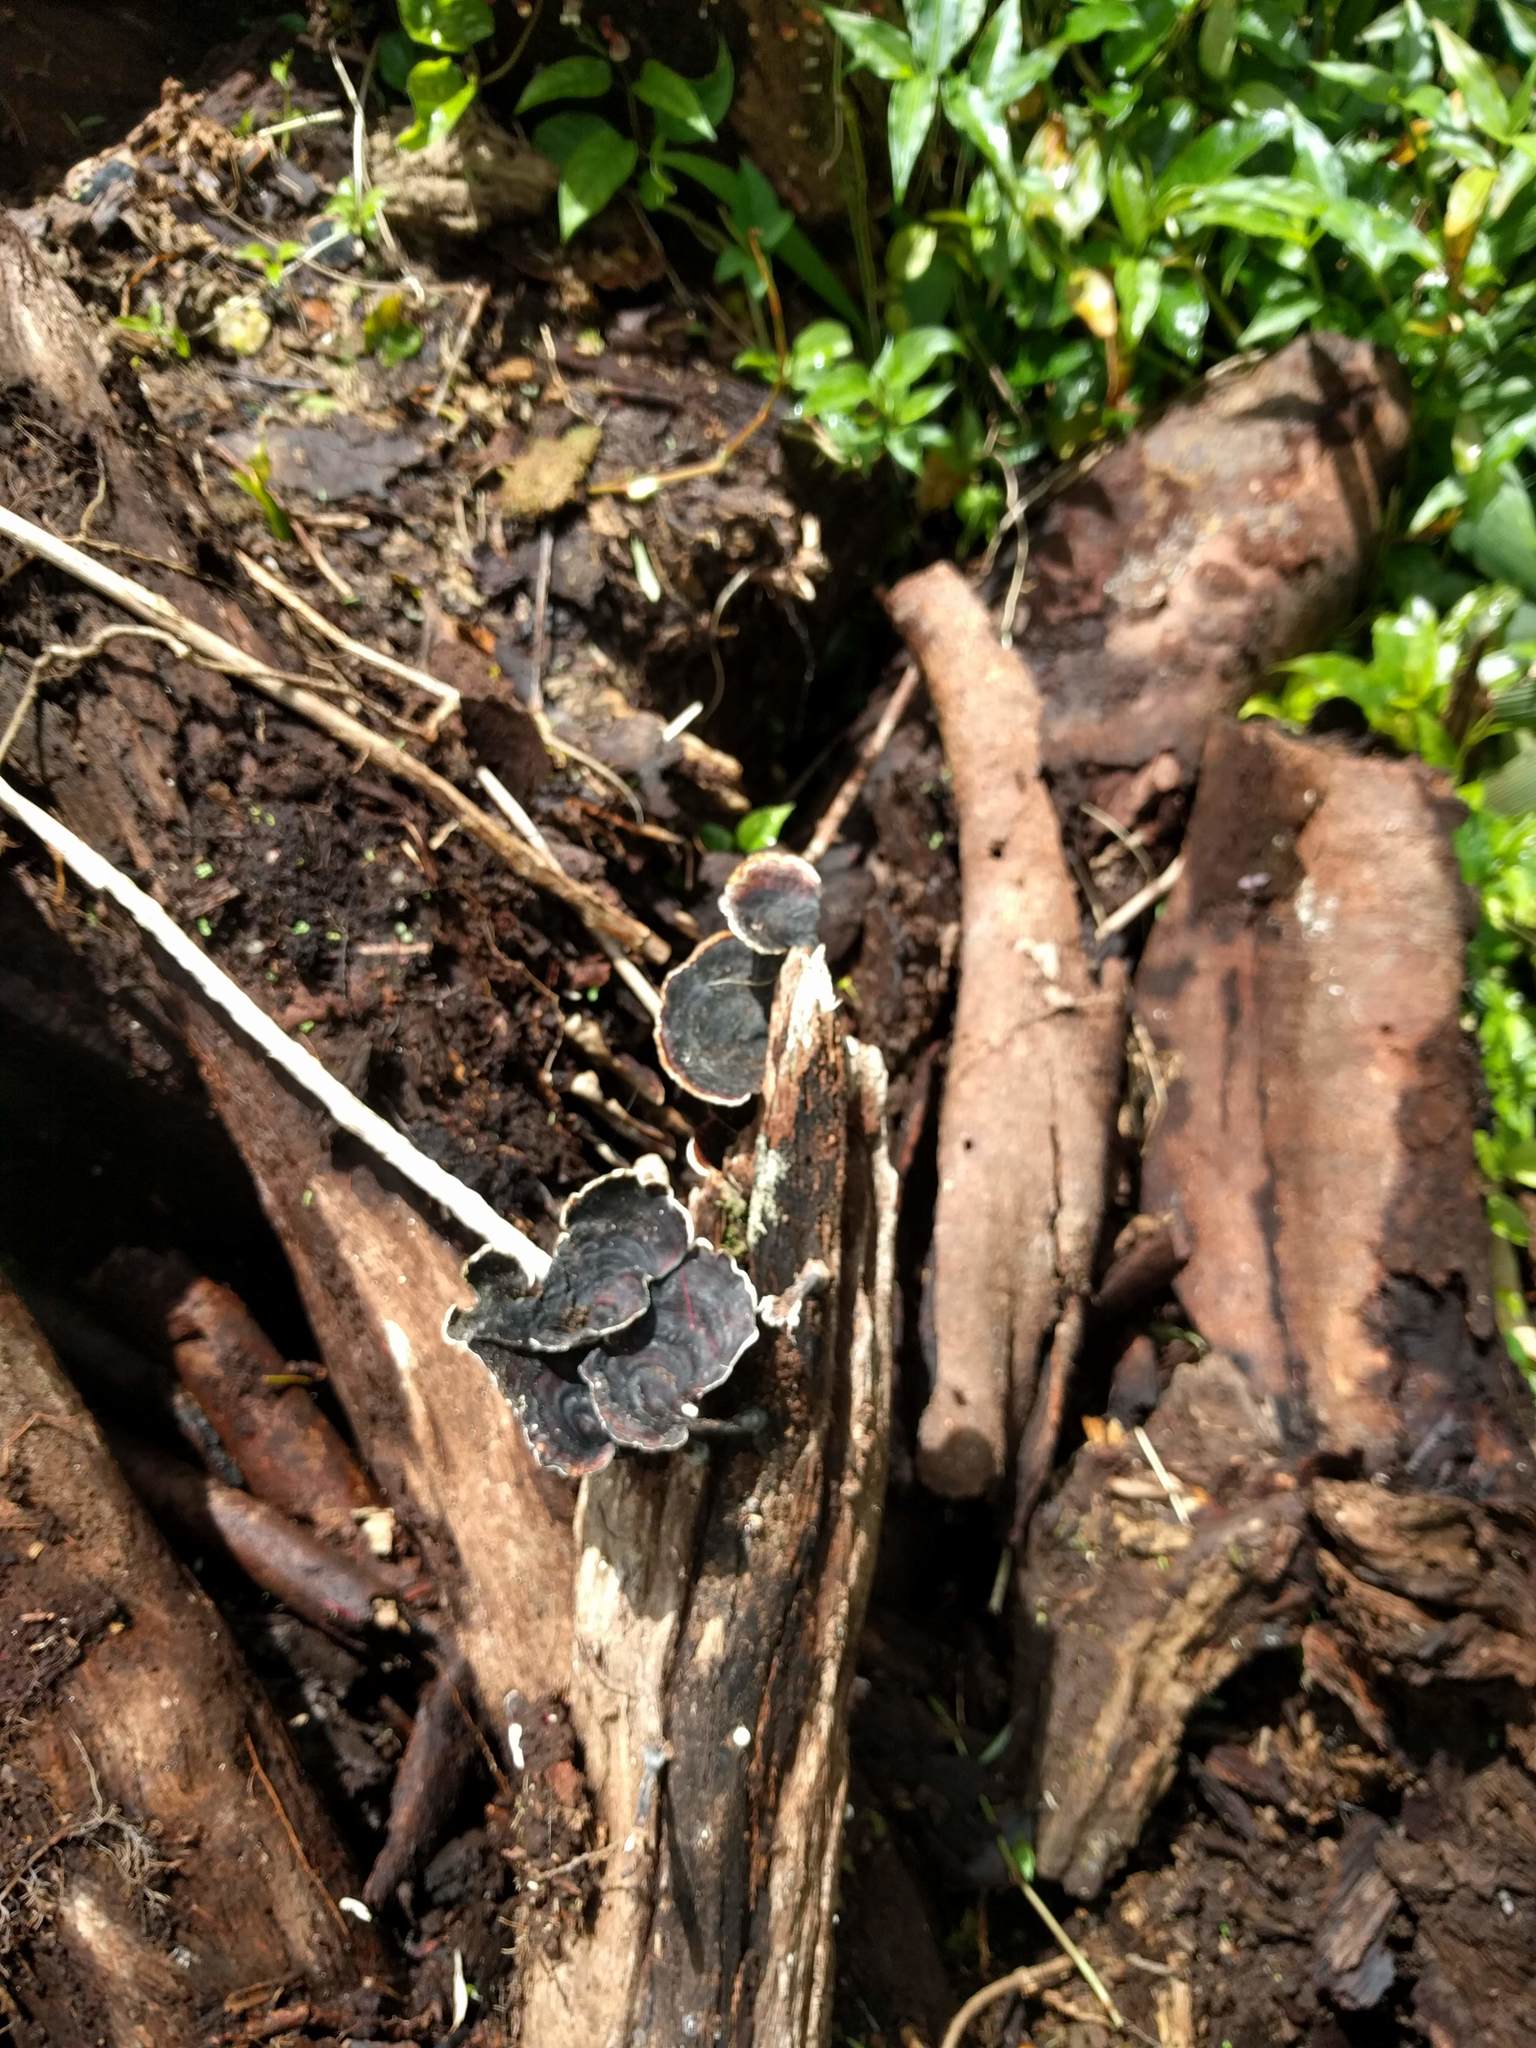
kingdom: Fungi
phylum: Basidiomycota
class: Agaricomycetes
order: Polyporales
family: Polyporaceae
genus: Microporus
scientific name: Microporus affinis
